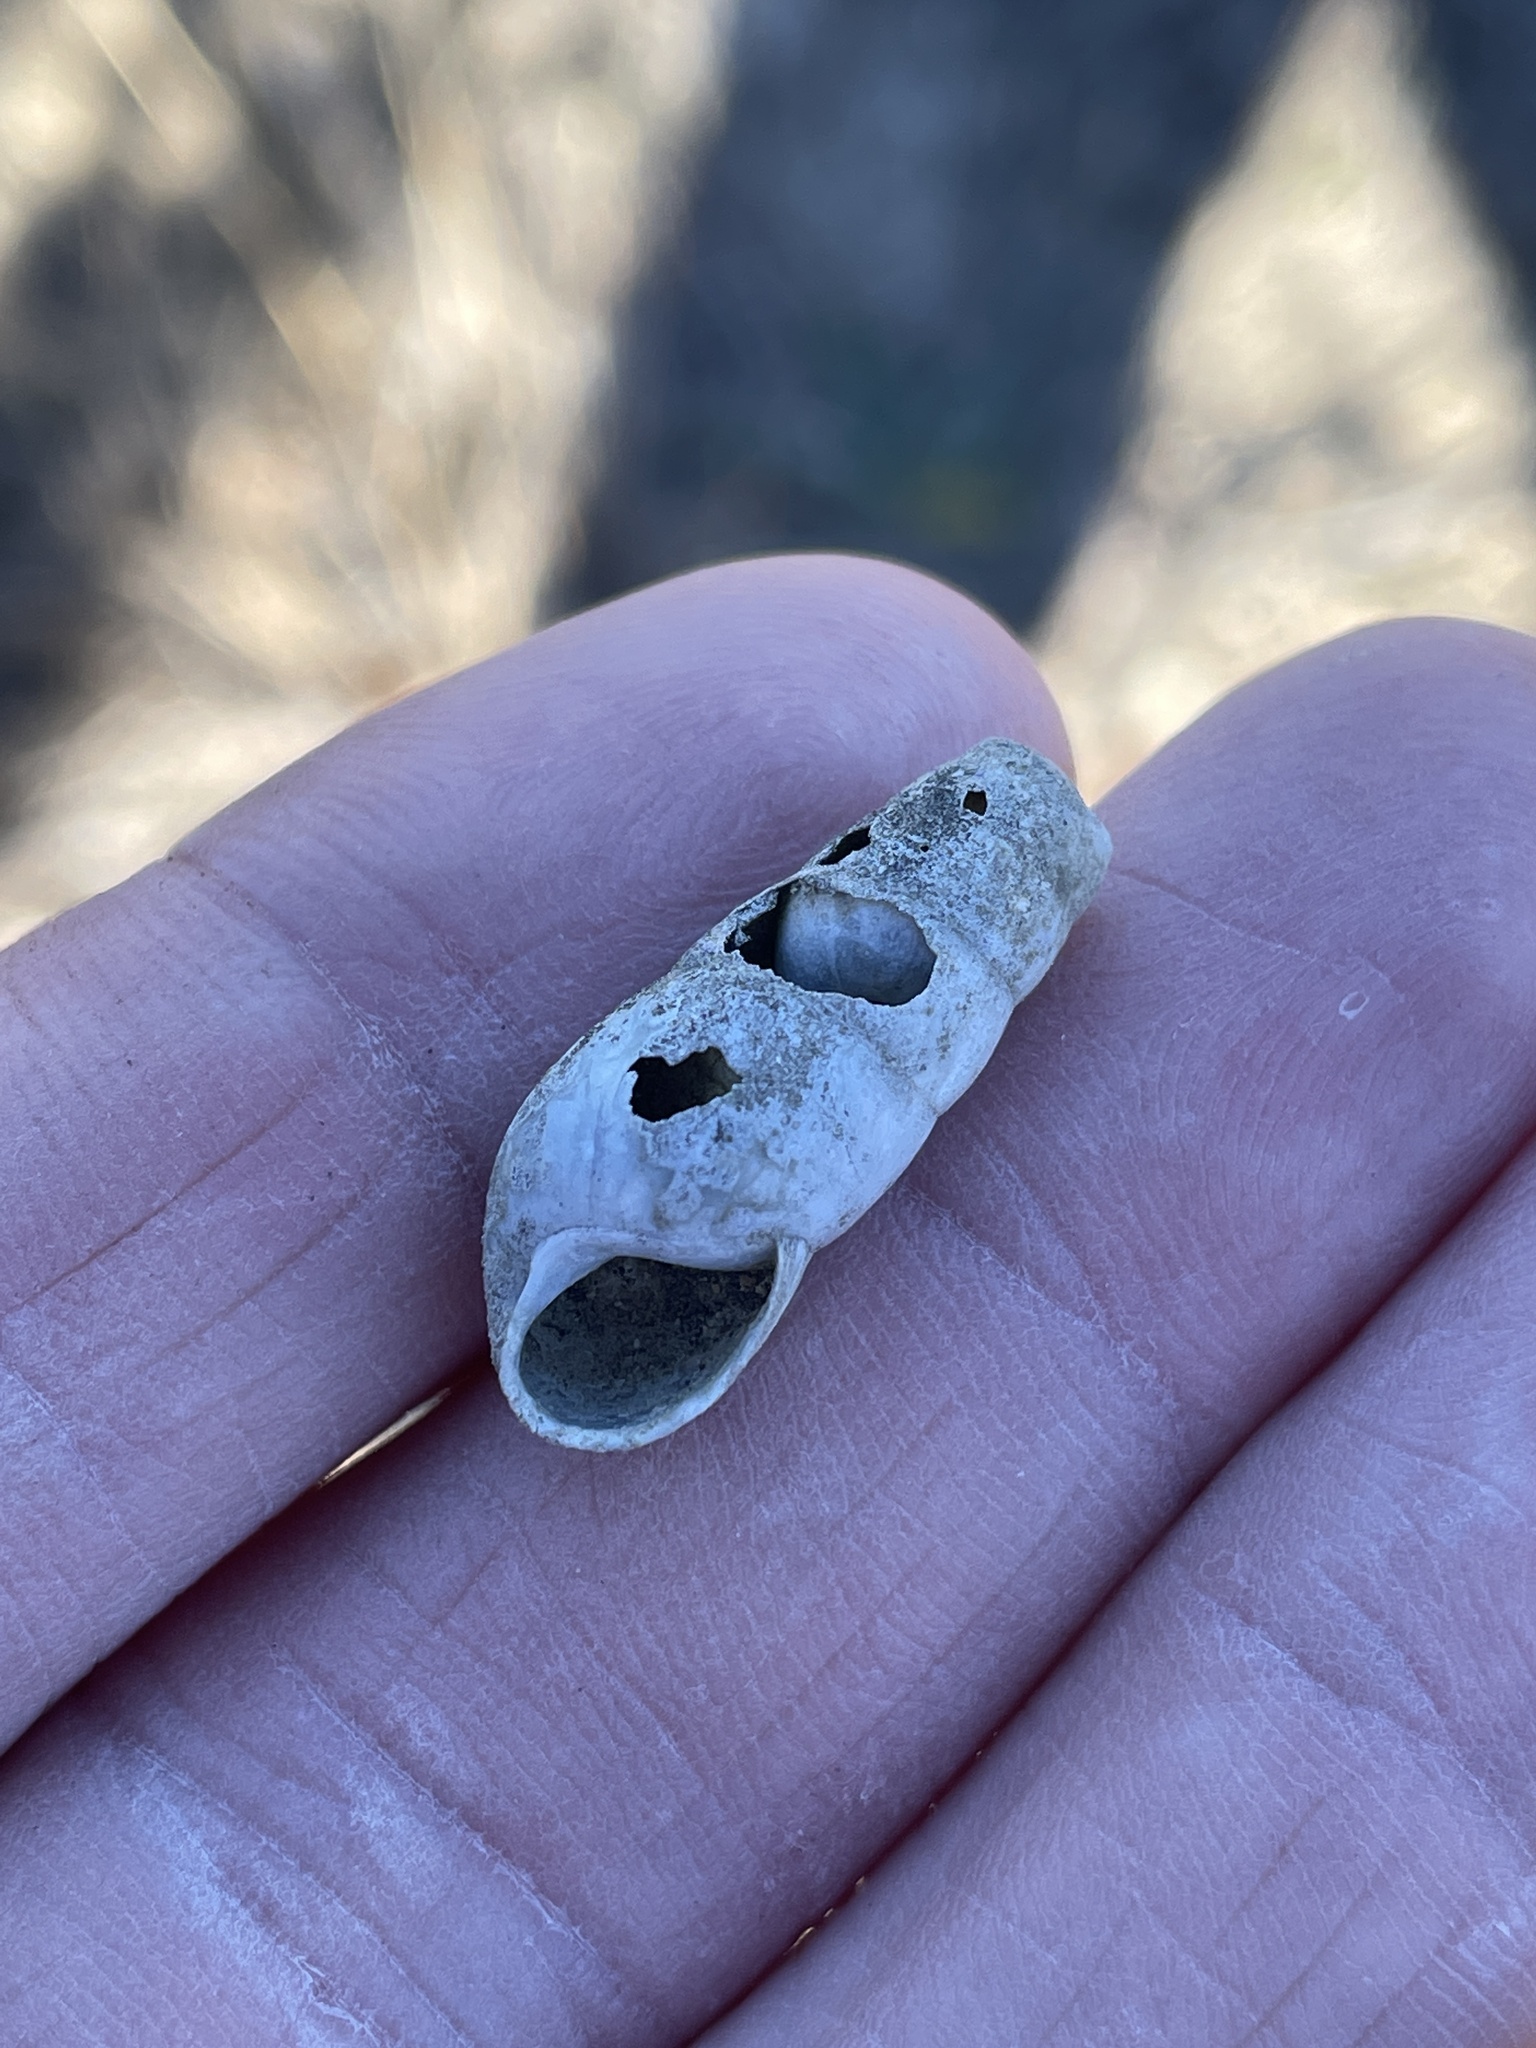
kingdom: Animalia
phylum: Mollusca
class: Gastropoda
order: Stylommatophora
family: Achatinidae
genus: Rumina
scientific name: Rumina decollata
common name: Decollate snail
